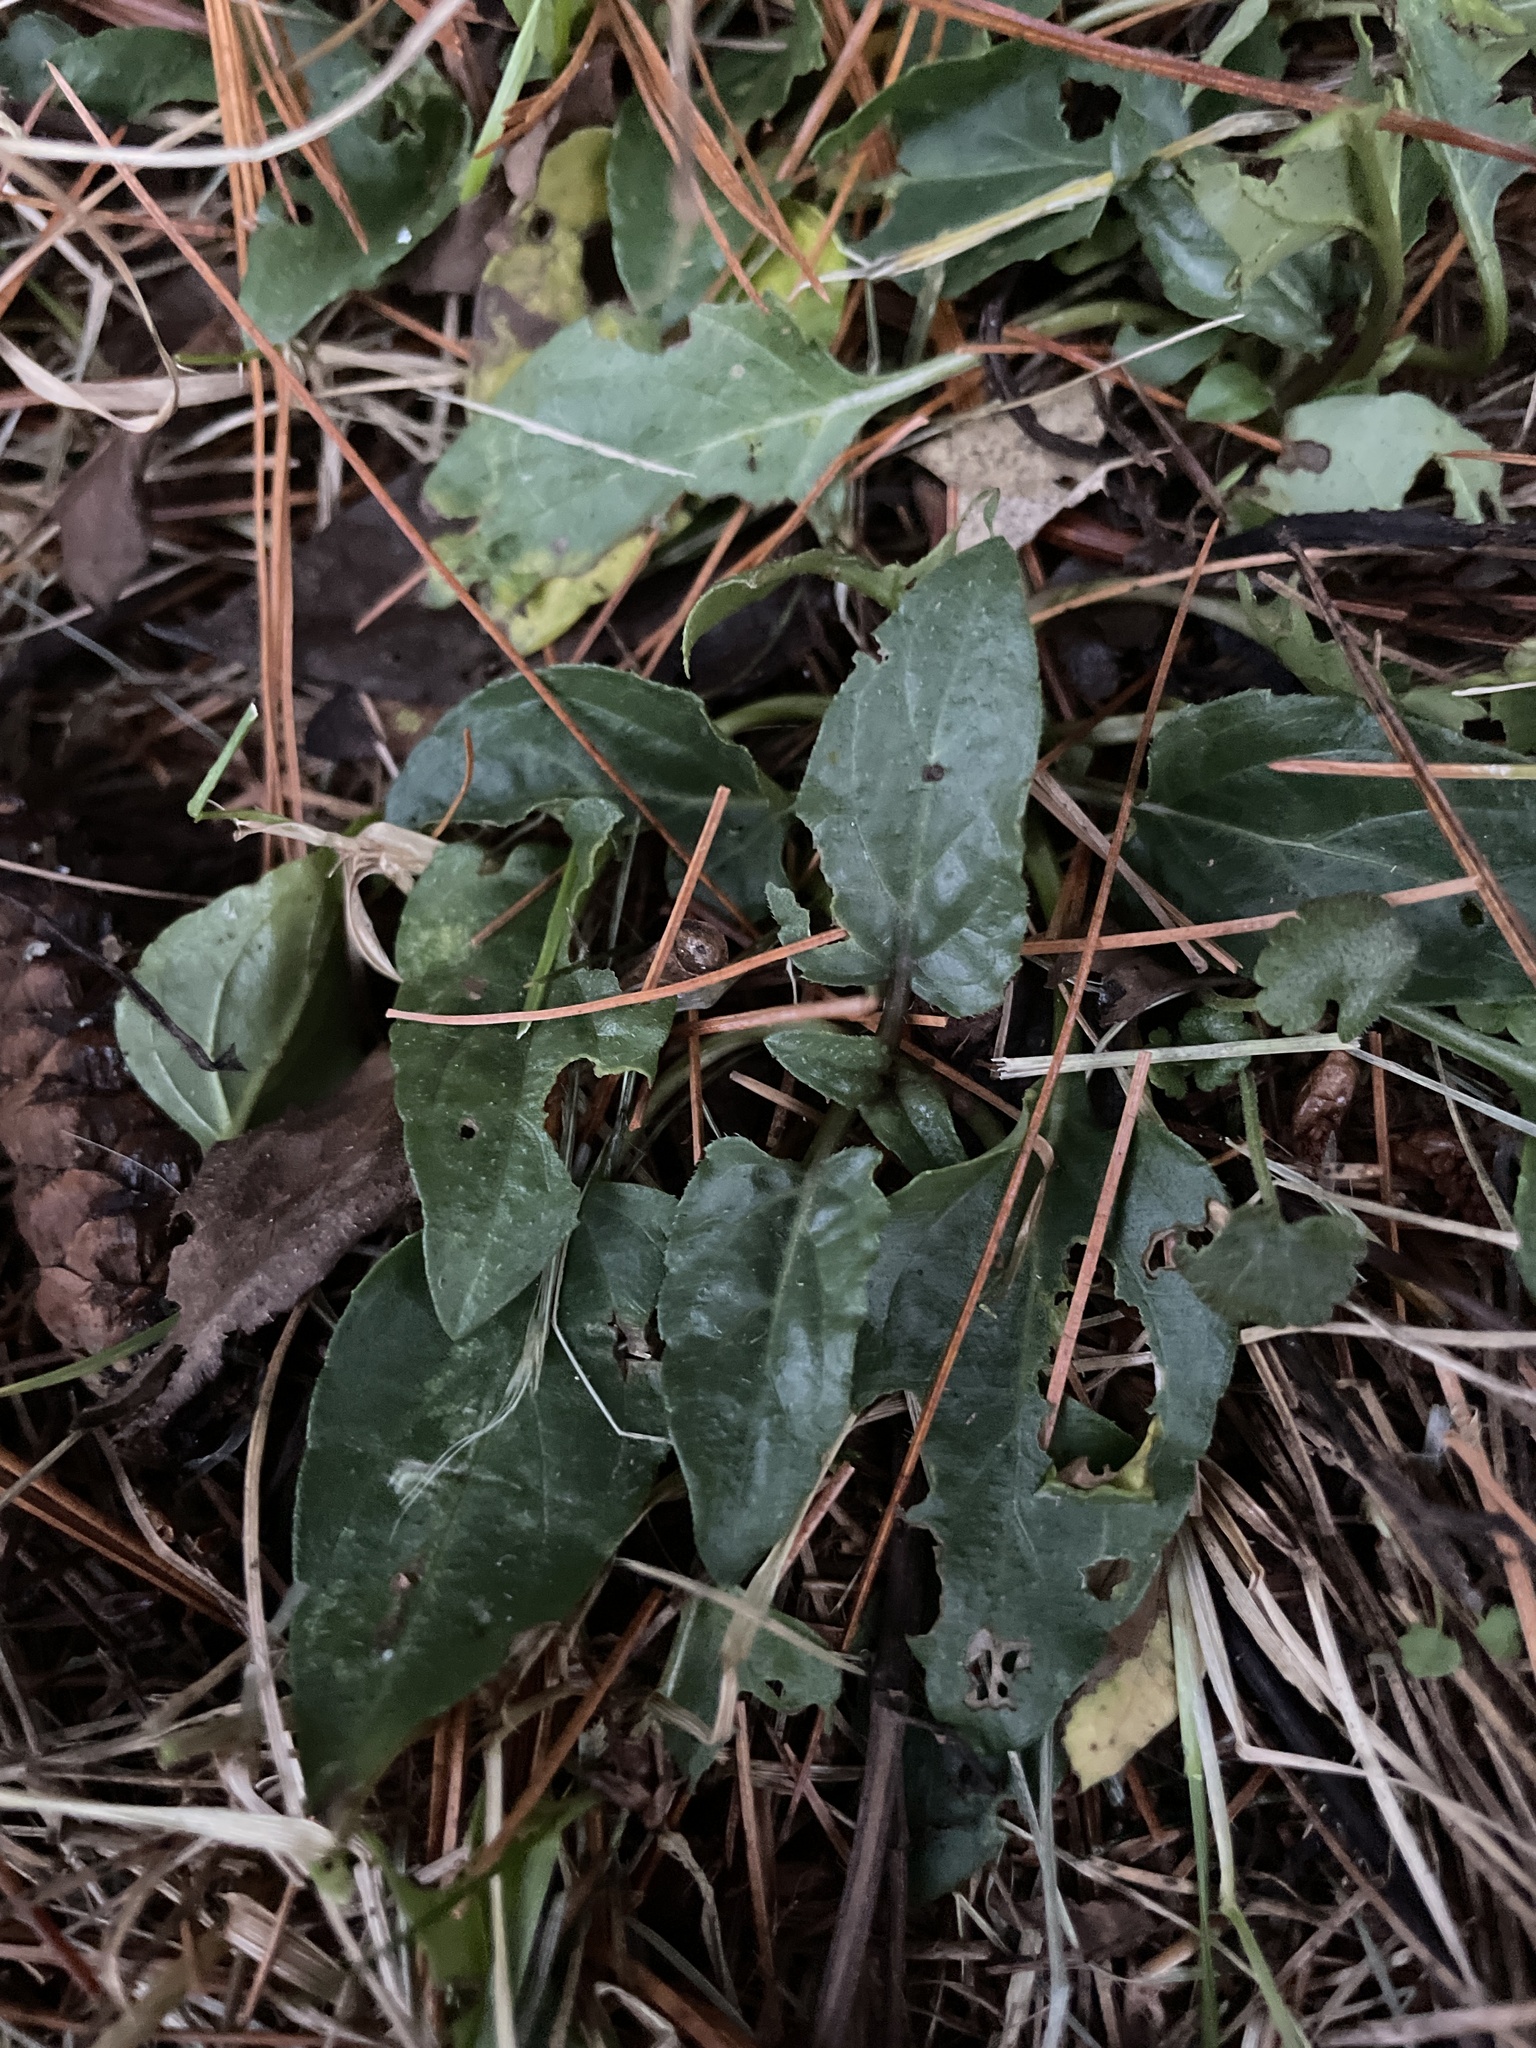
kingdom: Plantae
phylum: Tracheophyta
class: Magnoliopsida
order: Lamiales
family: Lamiaceae
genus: Prunella
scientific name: Prunella vulgaris
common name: Heal-all
